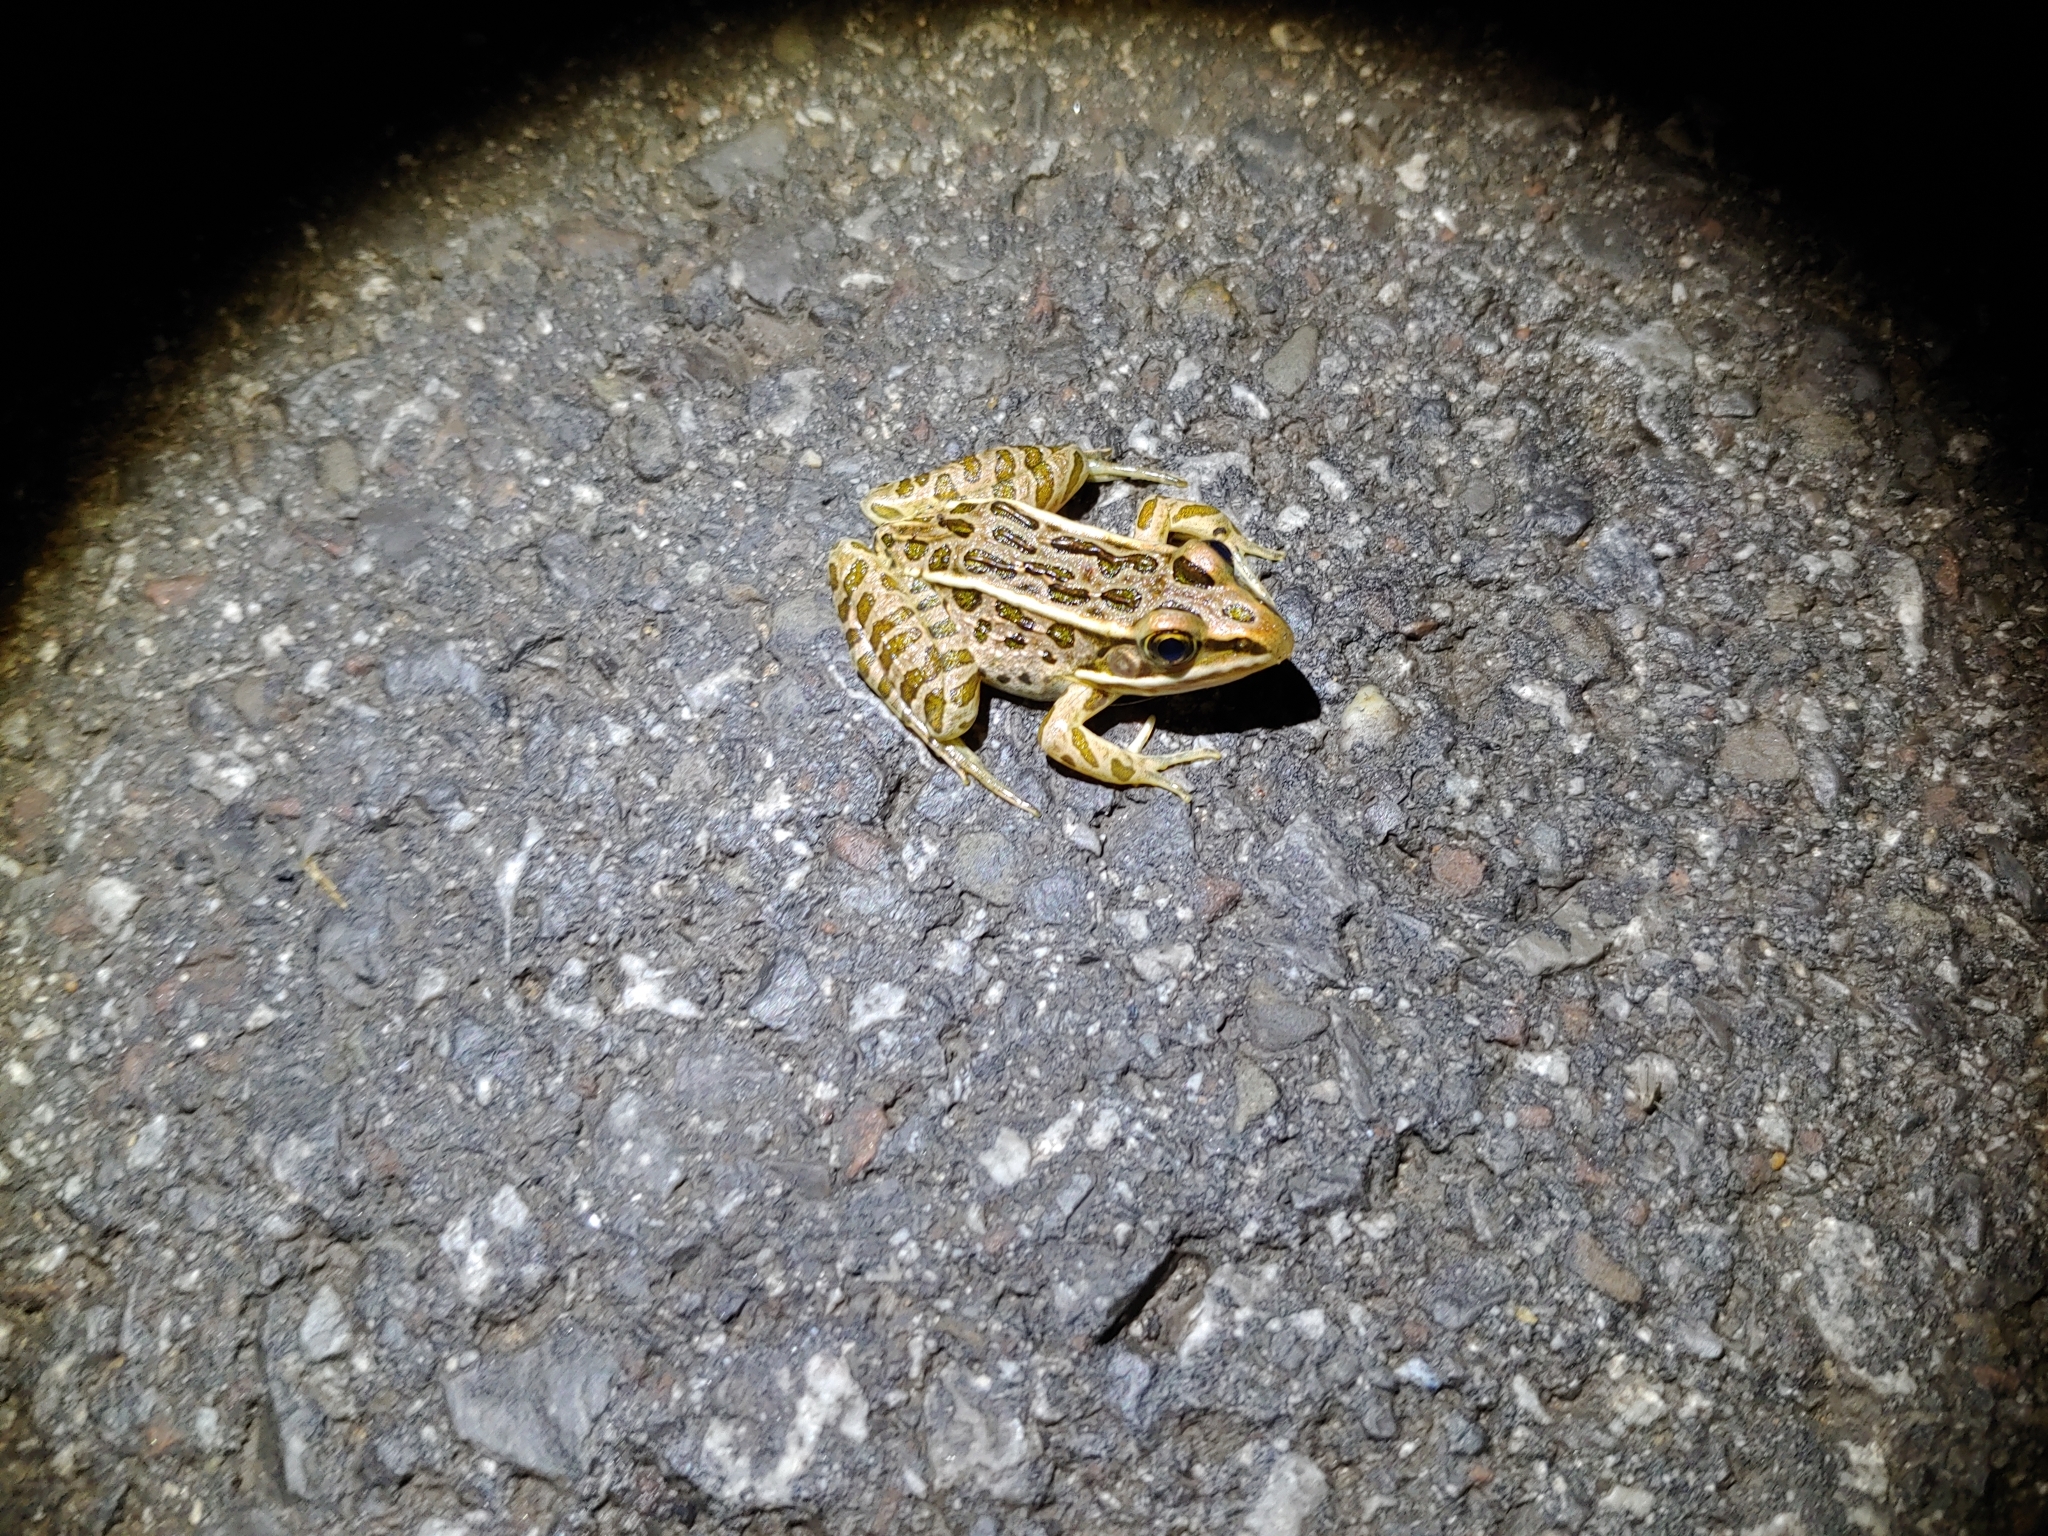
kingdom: Animalia
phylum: Chordata
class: Amphibia
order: Anura
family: Ranidae
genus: Lithobates
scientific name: Lithobates pipiens
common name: Northern leopard frog
